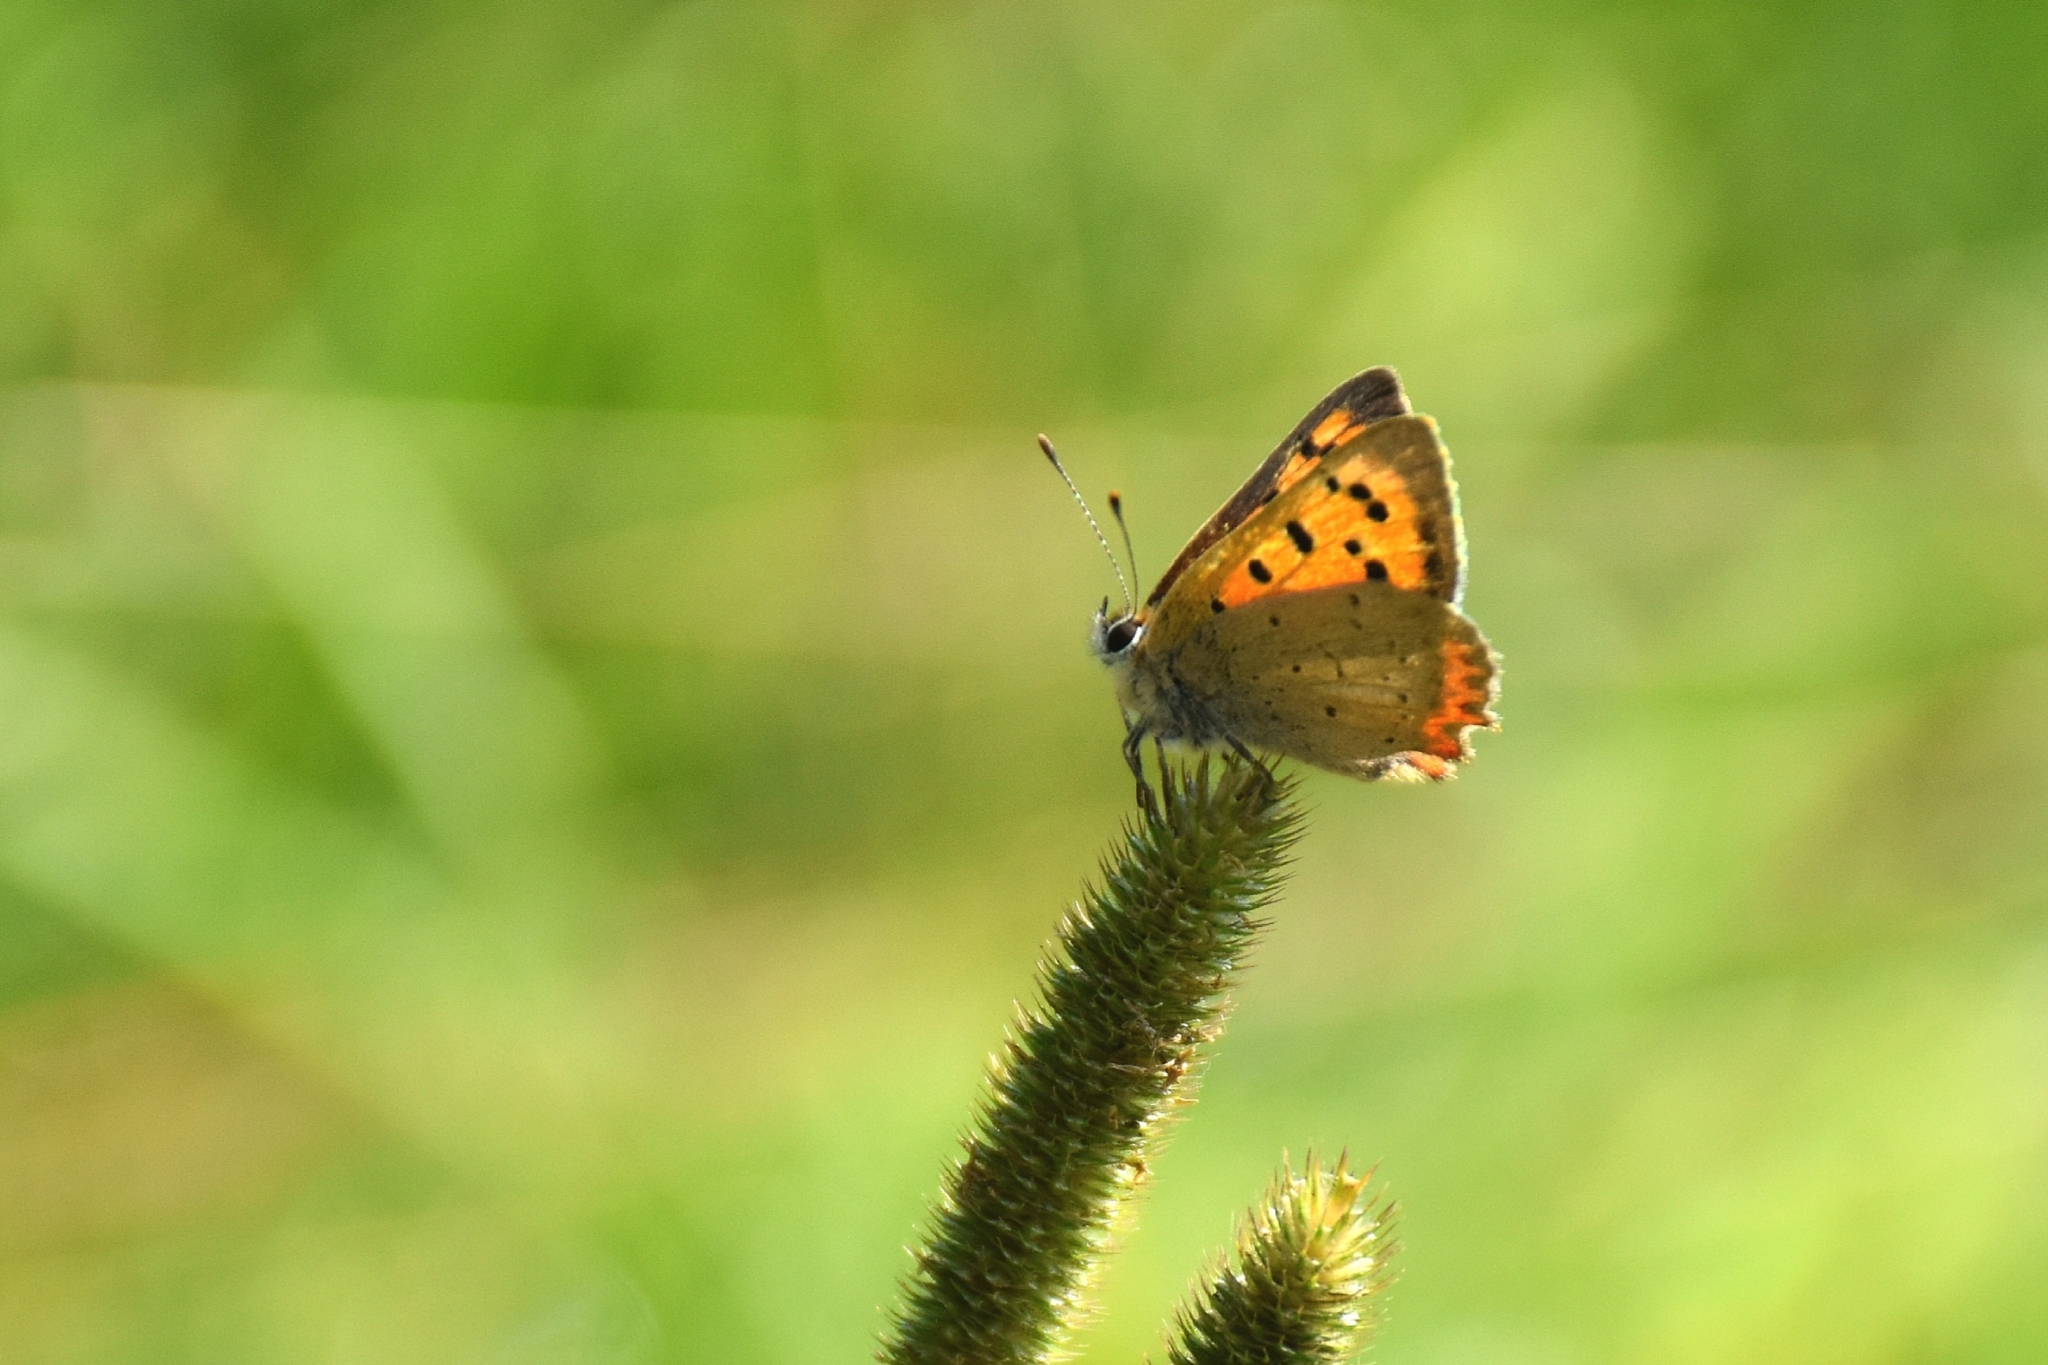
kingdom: Animalia
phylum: Arthropoda
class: Insecta
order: Lepidoptera
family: Lycaenidae
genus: Lycaena
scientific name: Lycaena phlaeas
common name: Small copper
